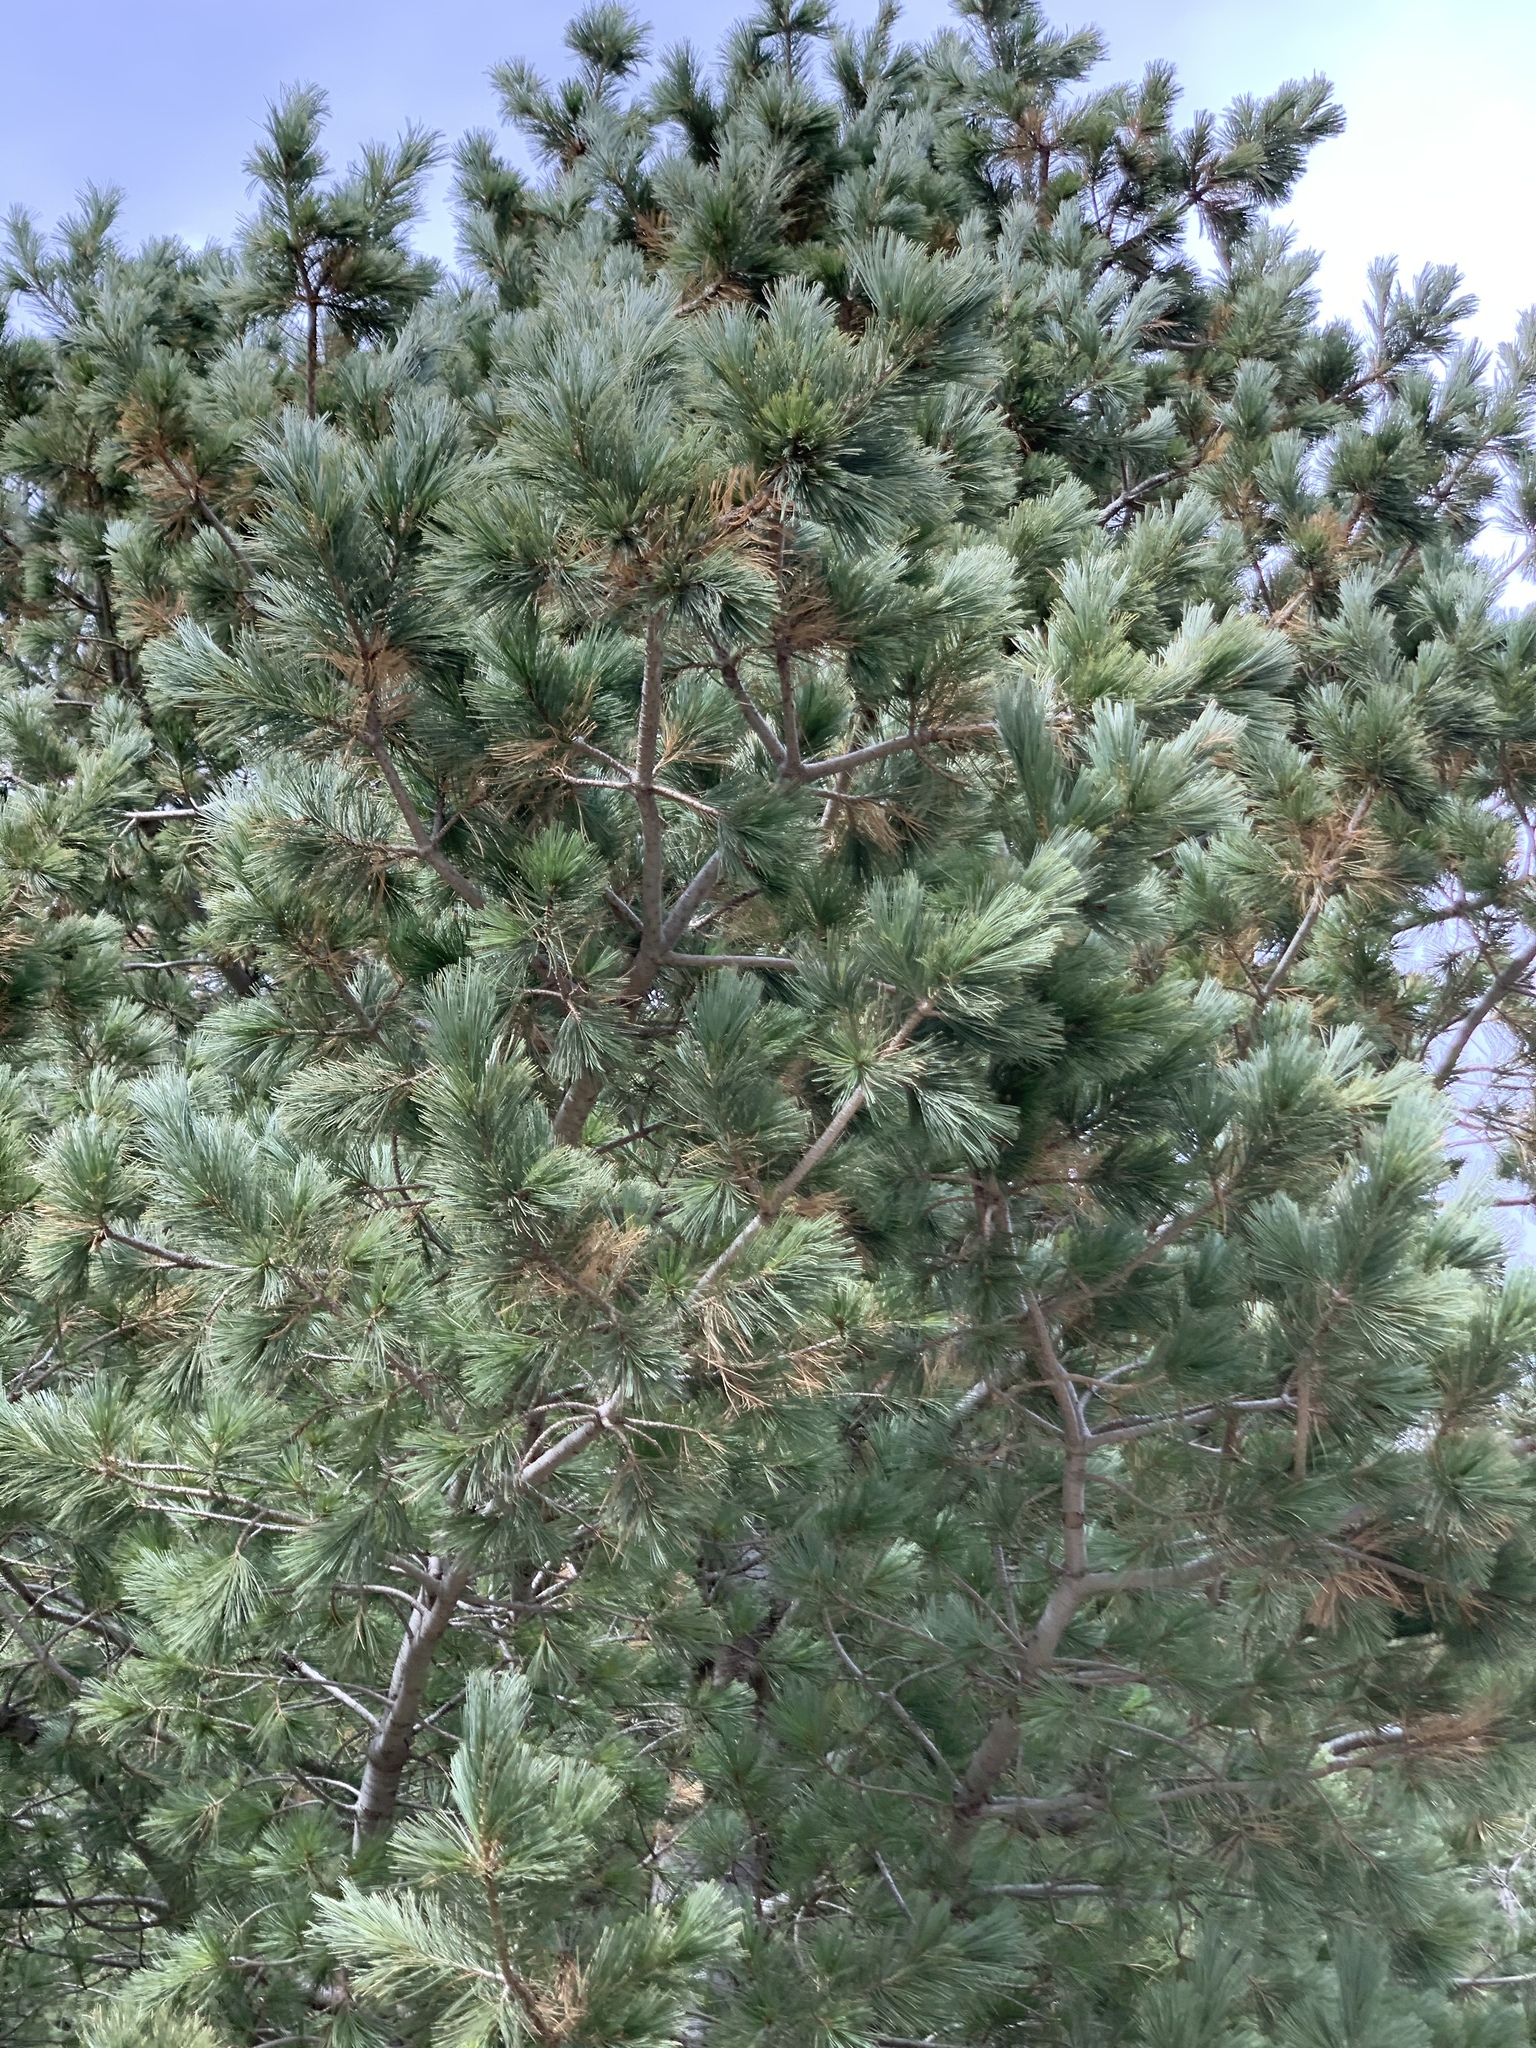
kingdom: Plantae
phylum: Tracheophyta
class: Pinopsida
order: Pinales
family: Pinaceae
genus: Pinus
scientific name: Pinus strobiformis
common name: Southwestern white pine
